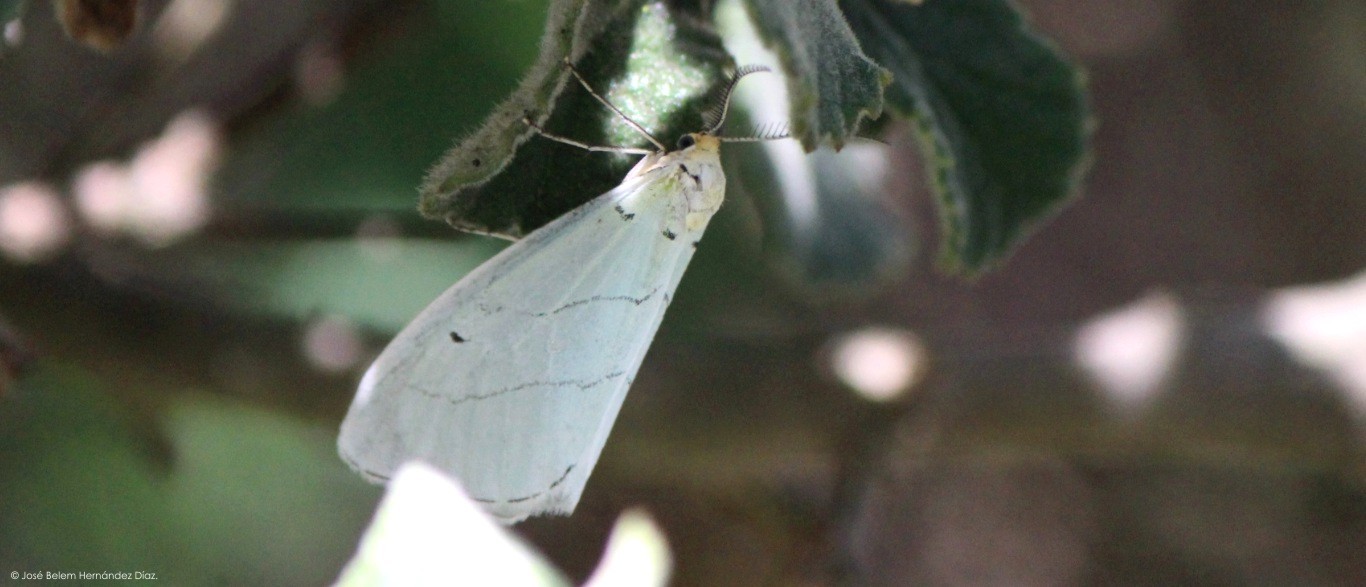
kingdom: Animalia
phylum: Arthropoda
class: Insecta
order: Lepidoptera
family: Doidae
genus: Leuculodes
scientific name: Leuculodes lacteolaria
